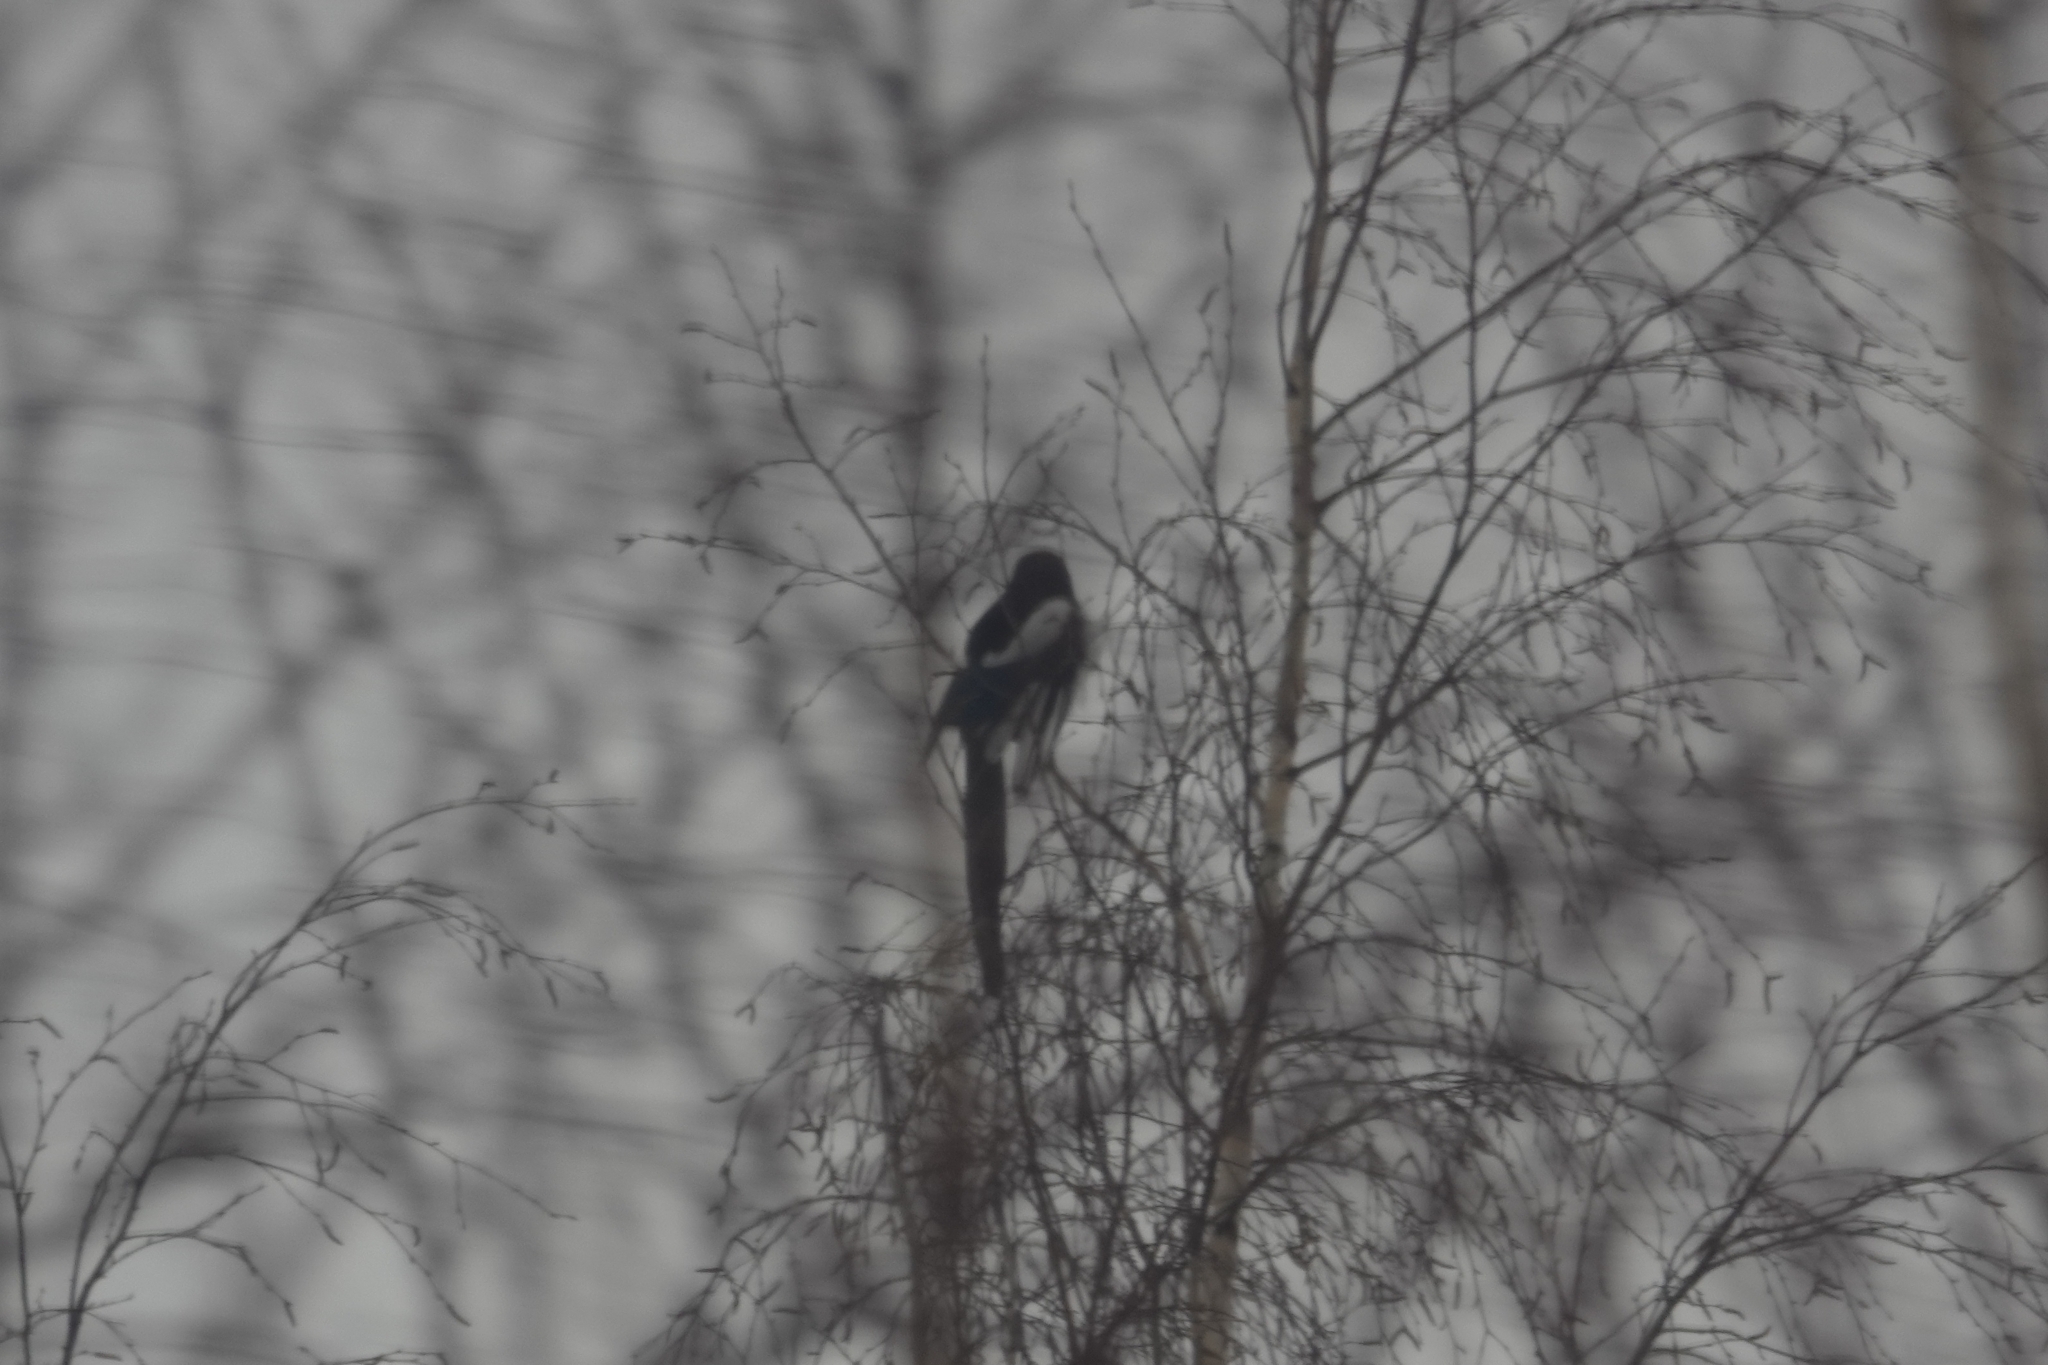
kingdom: Animalia
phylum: Chordata
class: Aves
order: Passeriformes
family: Corvidae
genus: Pica
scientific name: Pica pica
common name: Eurasian magpie
